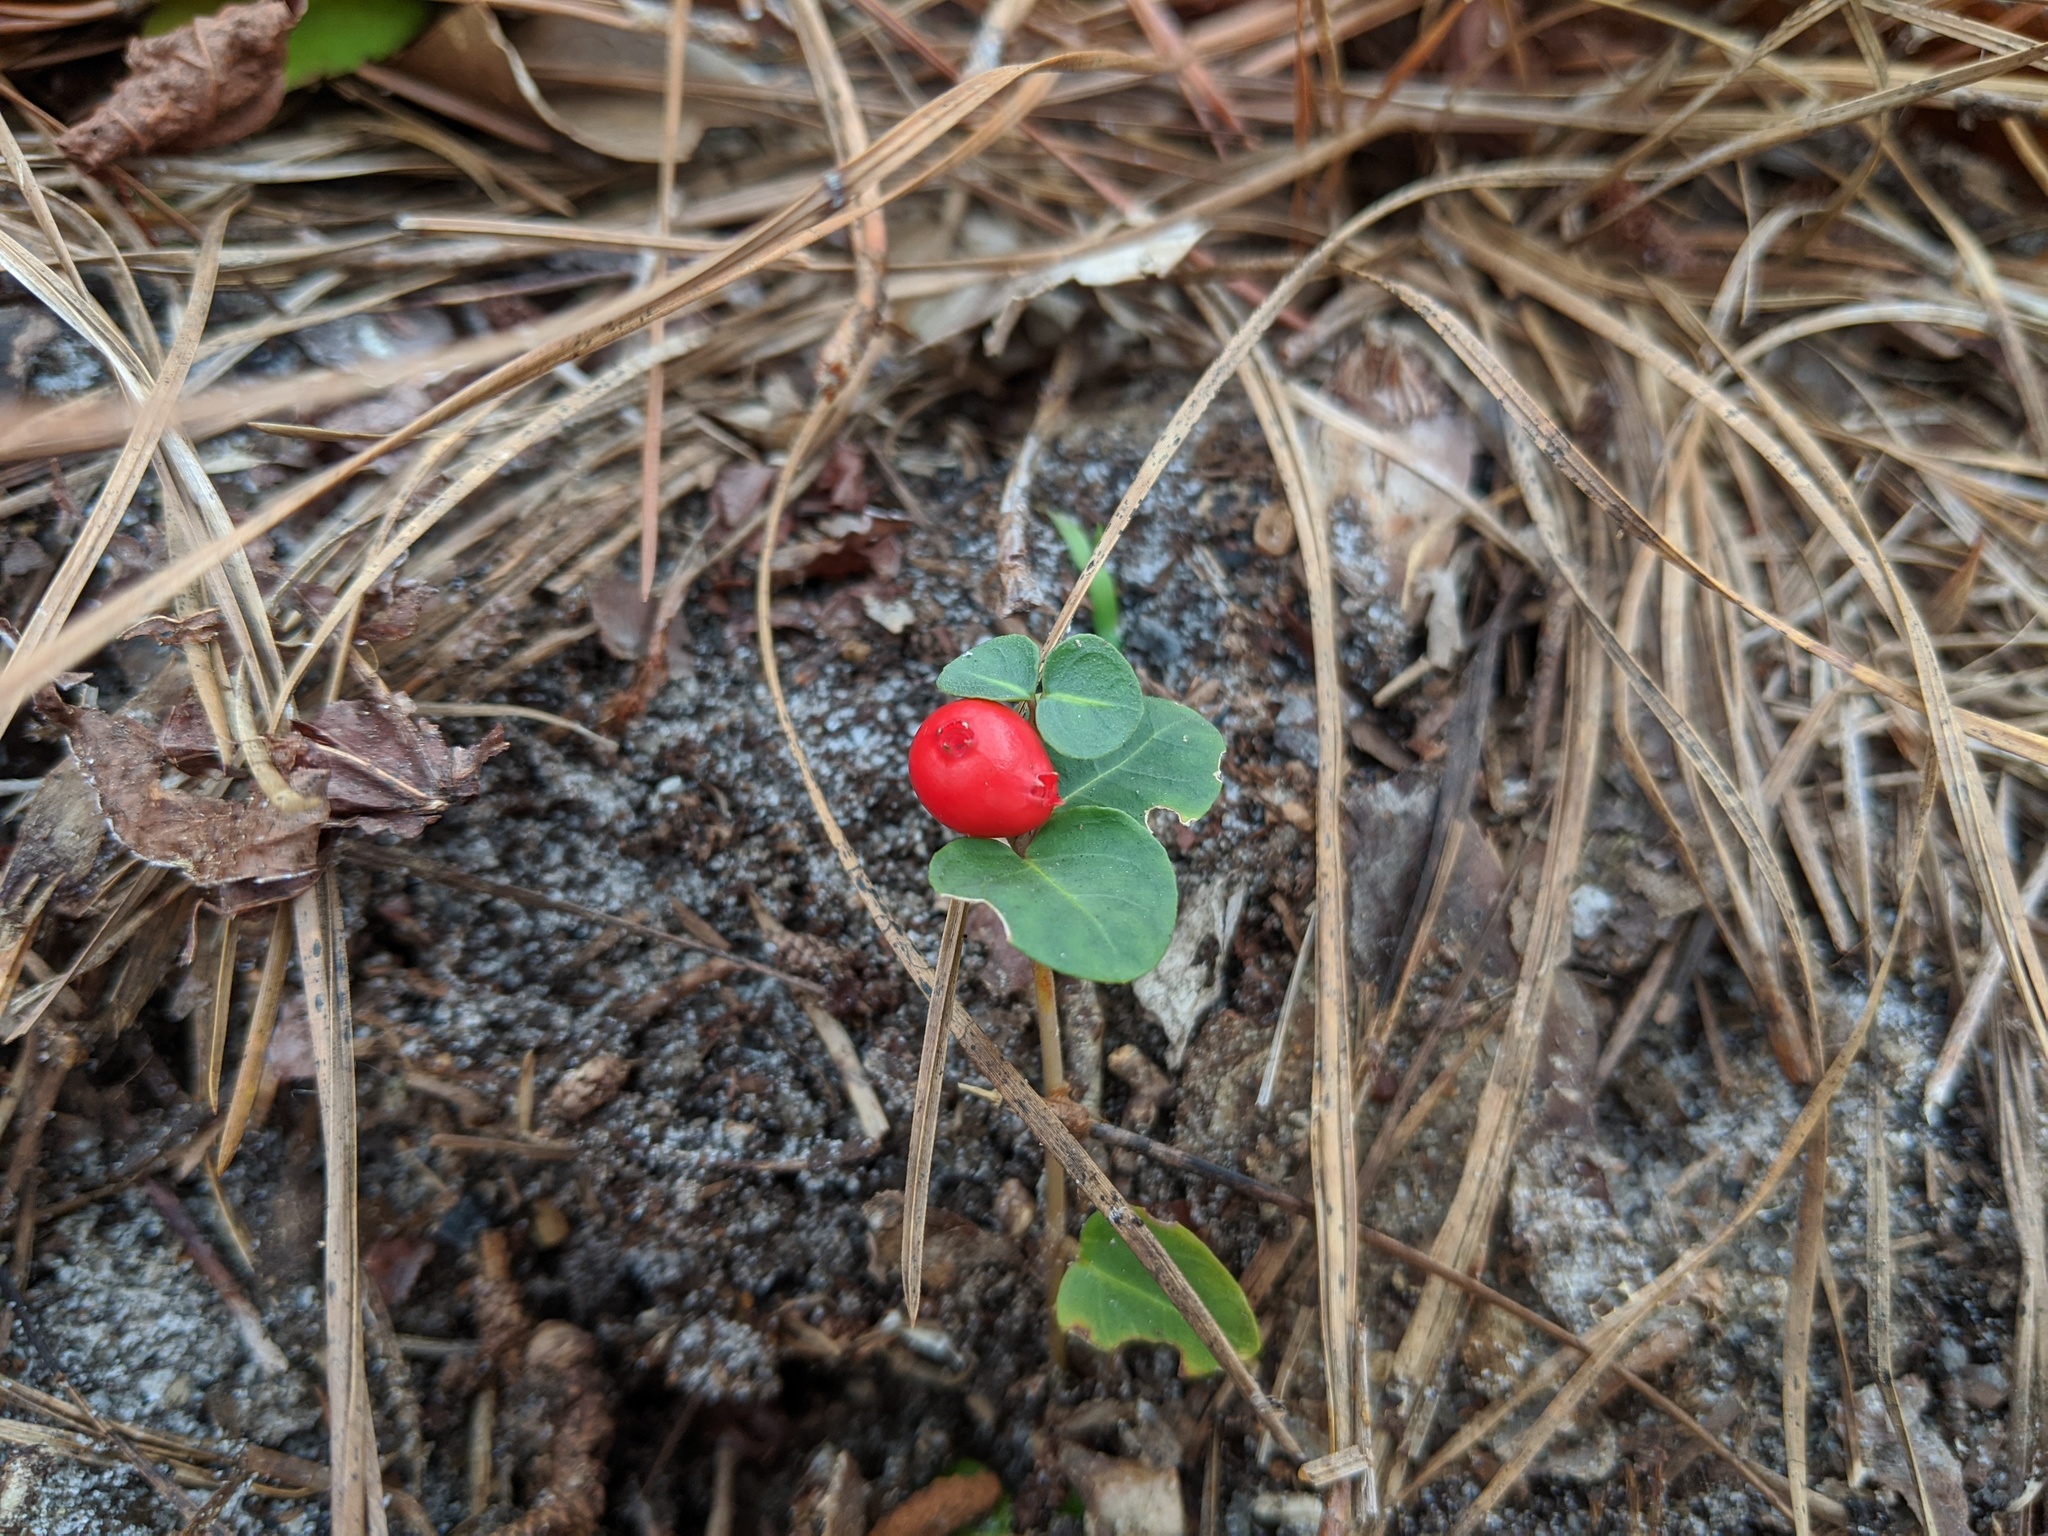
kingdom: Plantae
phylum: Tracheophyta
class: Magnoliopsida
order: Gentianales
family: Rubiaceae
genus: Mitchella
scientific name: Mitchella repens
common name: Partridge-berry
